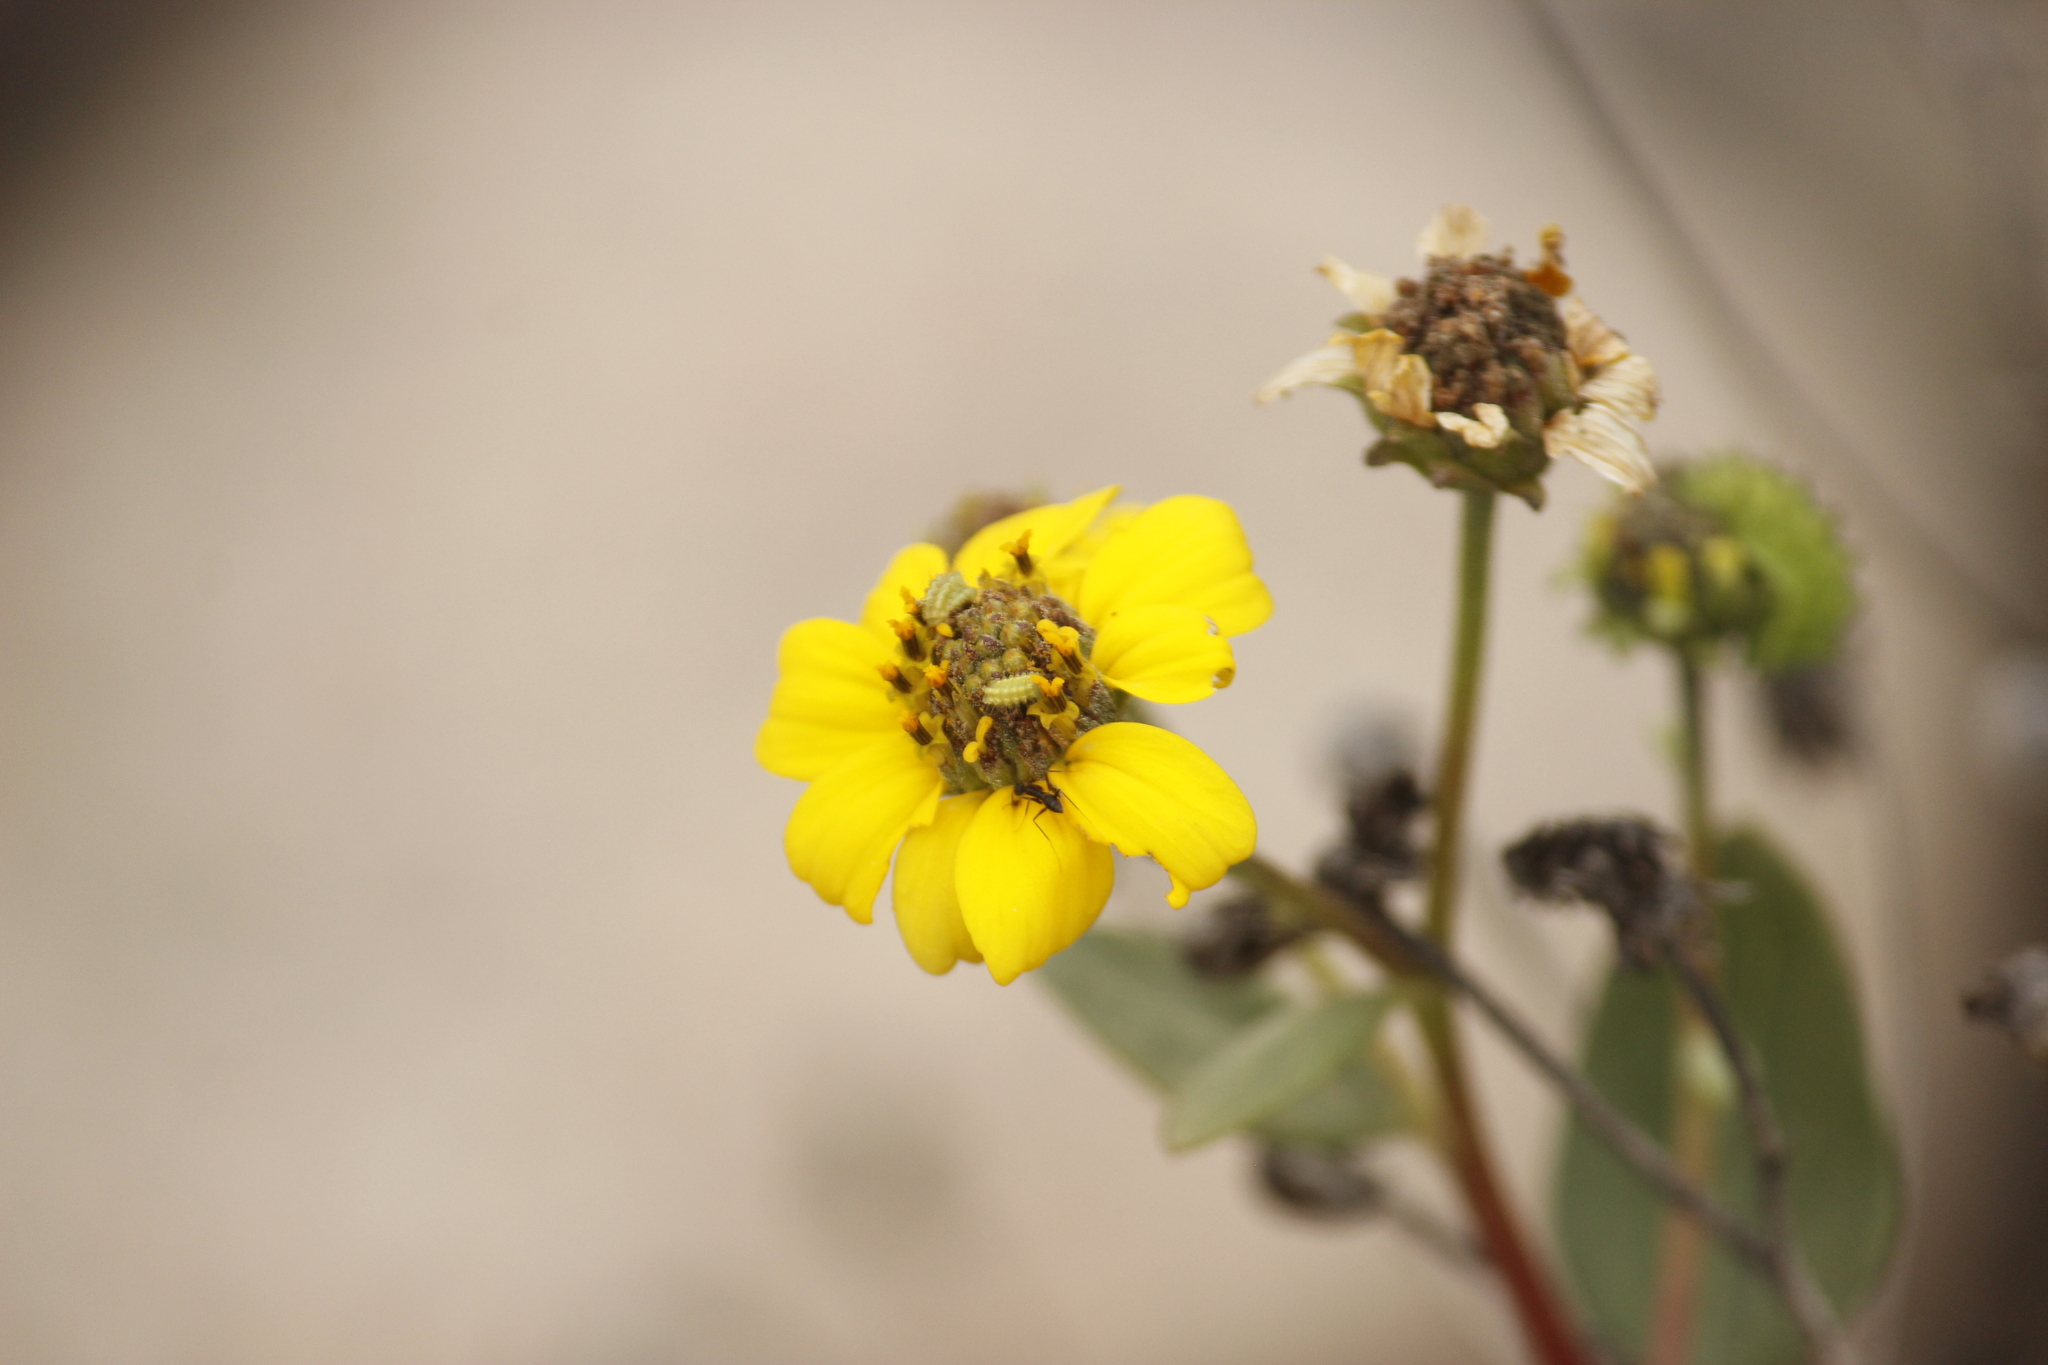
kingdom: Plantae
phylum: Tracheophyta
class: Magnoliopsida
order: Asterales
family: Asteraceae
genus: Encelia
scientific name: Encelia canescens
